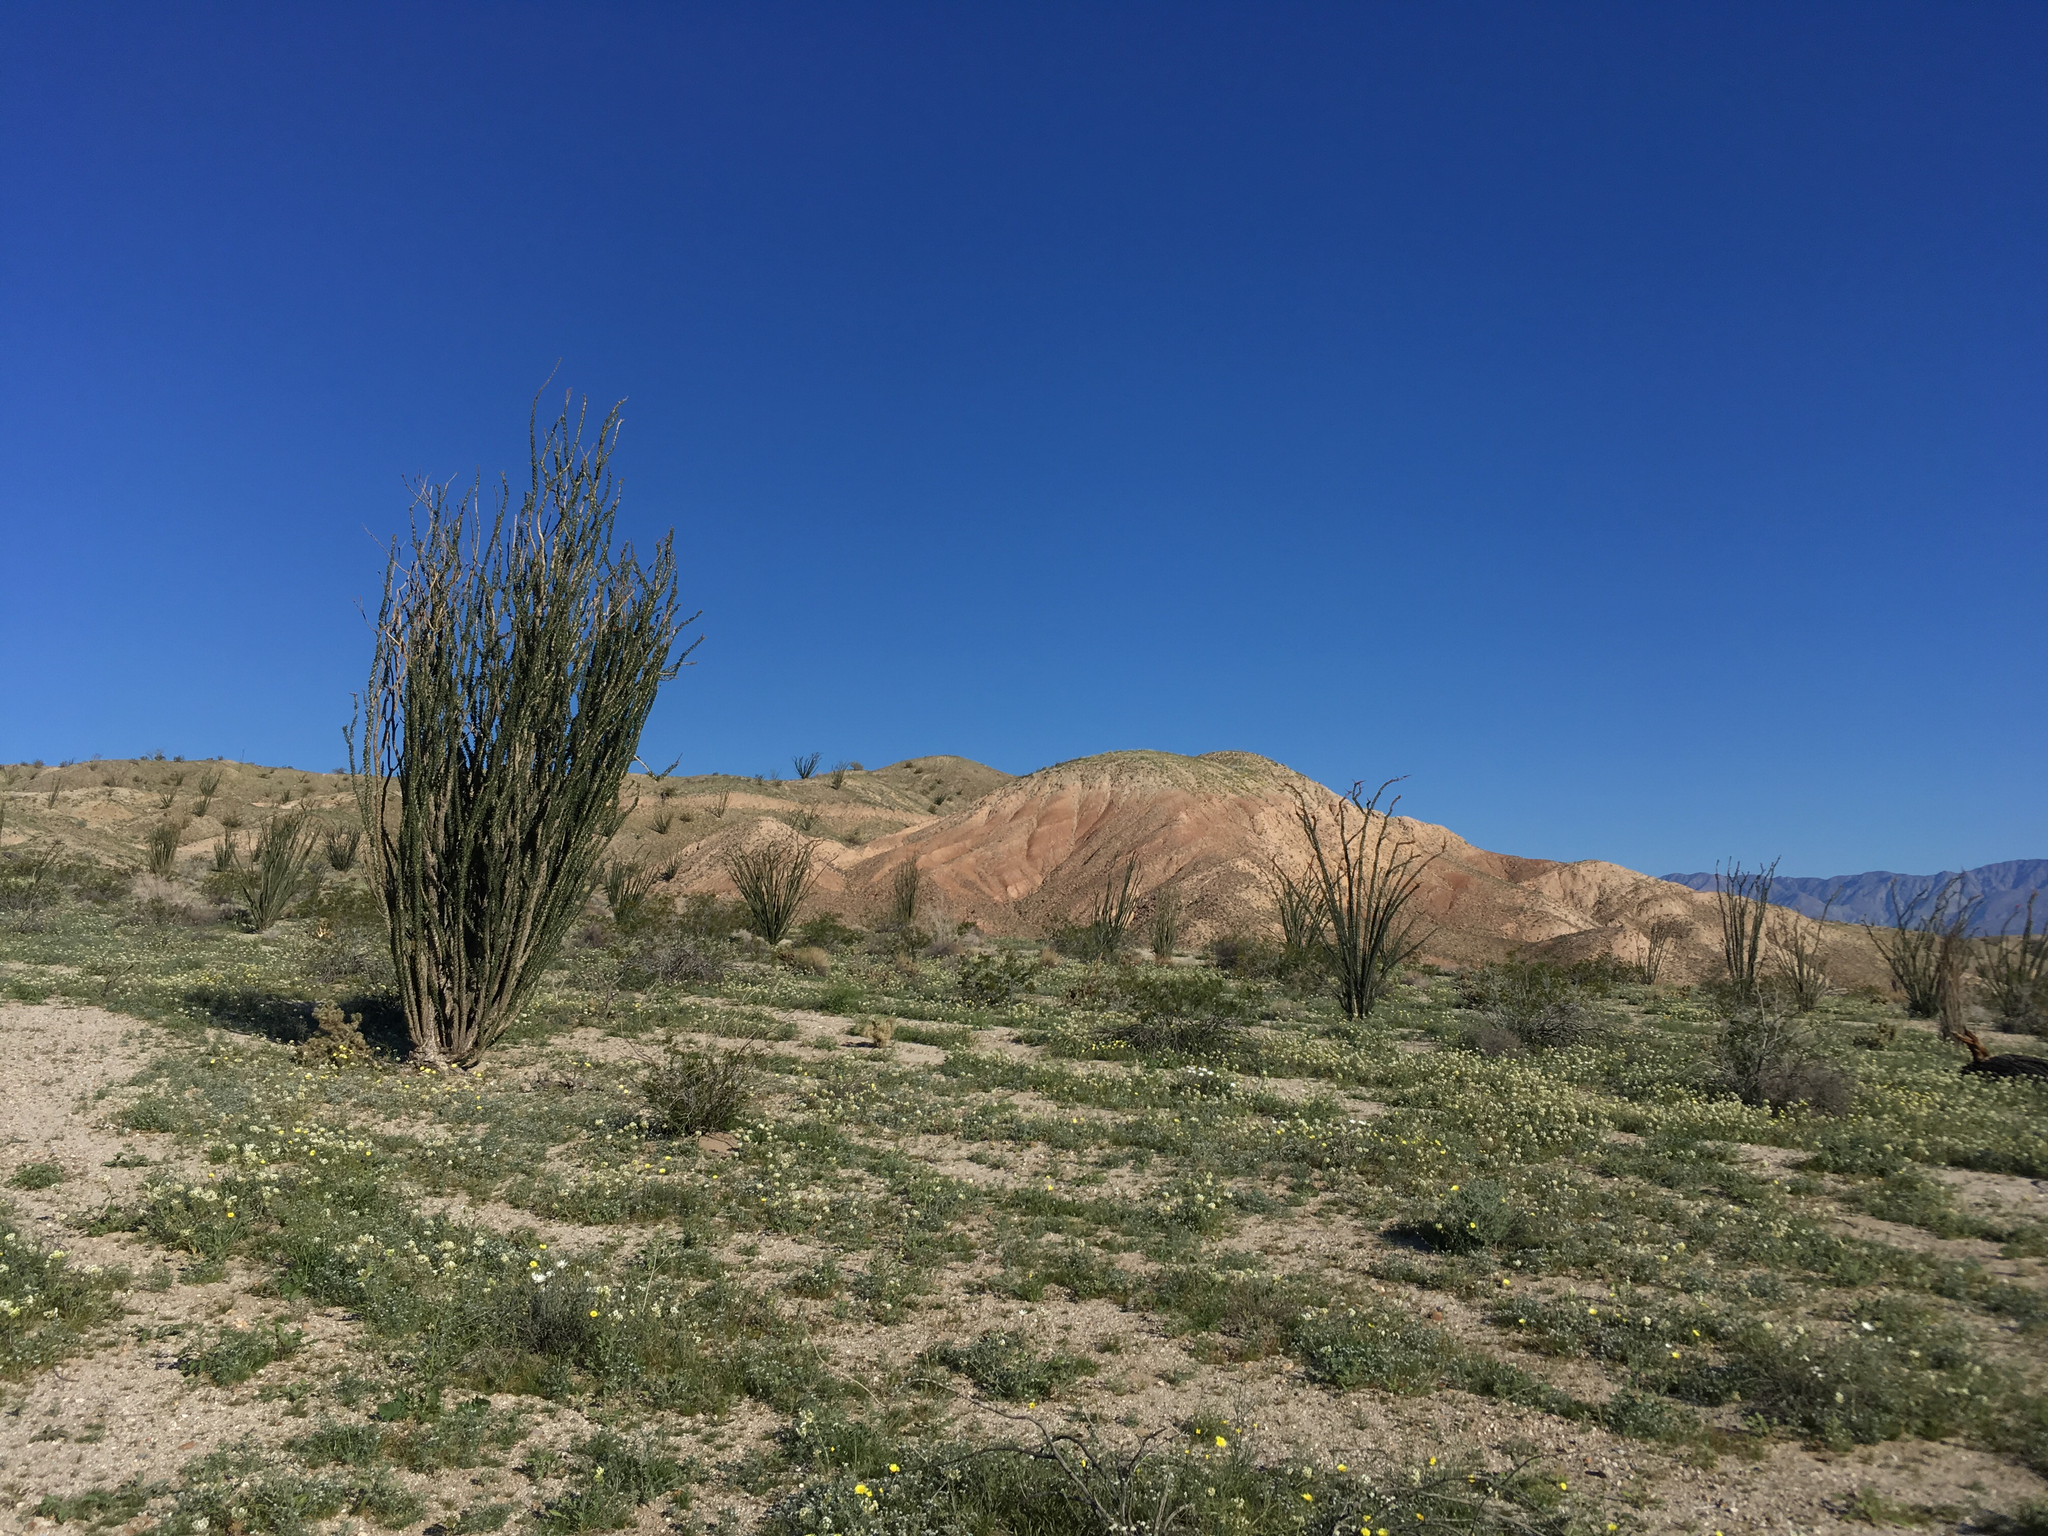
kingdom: Plantae
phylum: Tracheophyta
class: Magnoliopsida
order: Ericales
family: Fouquieriaceae
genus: Fouquieria
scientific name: Fouquieria splendens
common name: Vine-cactus
